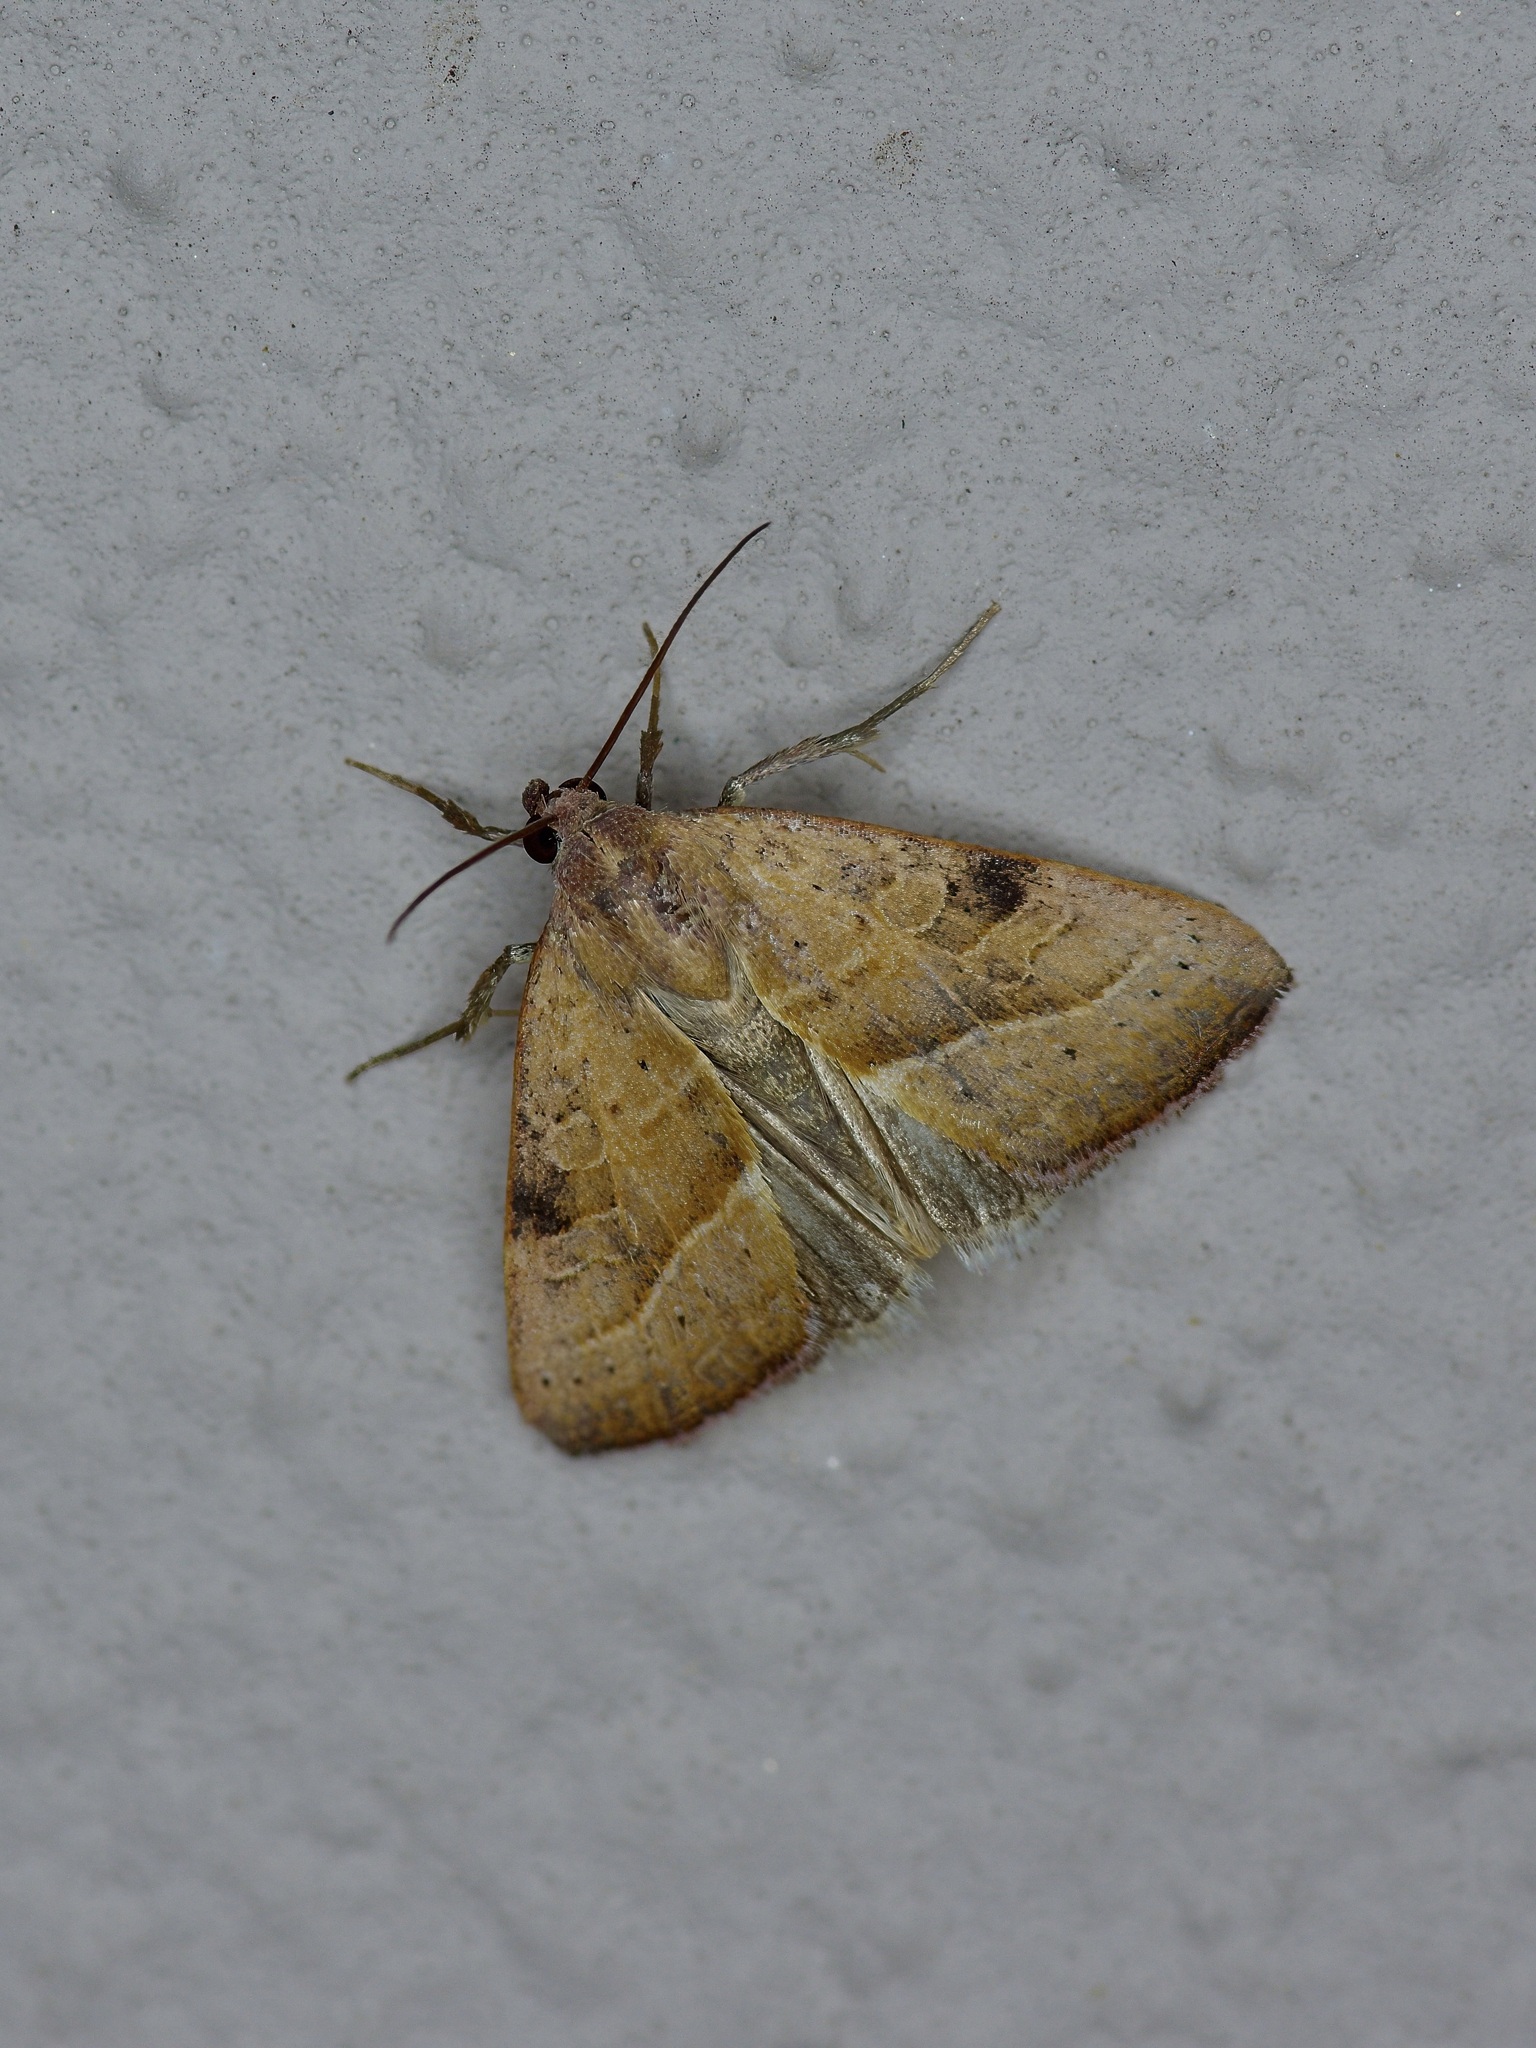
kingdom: Animalia
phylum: Arthropoda
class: Insecta
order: Lepidoptera
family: Noctuidae
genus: Galgula
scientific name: Galgula partita
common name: Wedgeling
